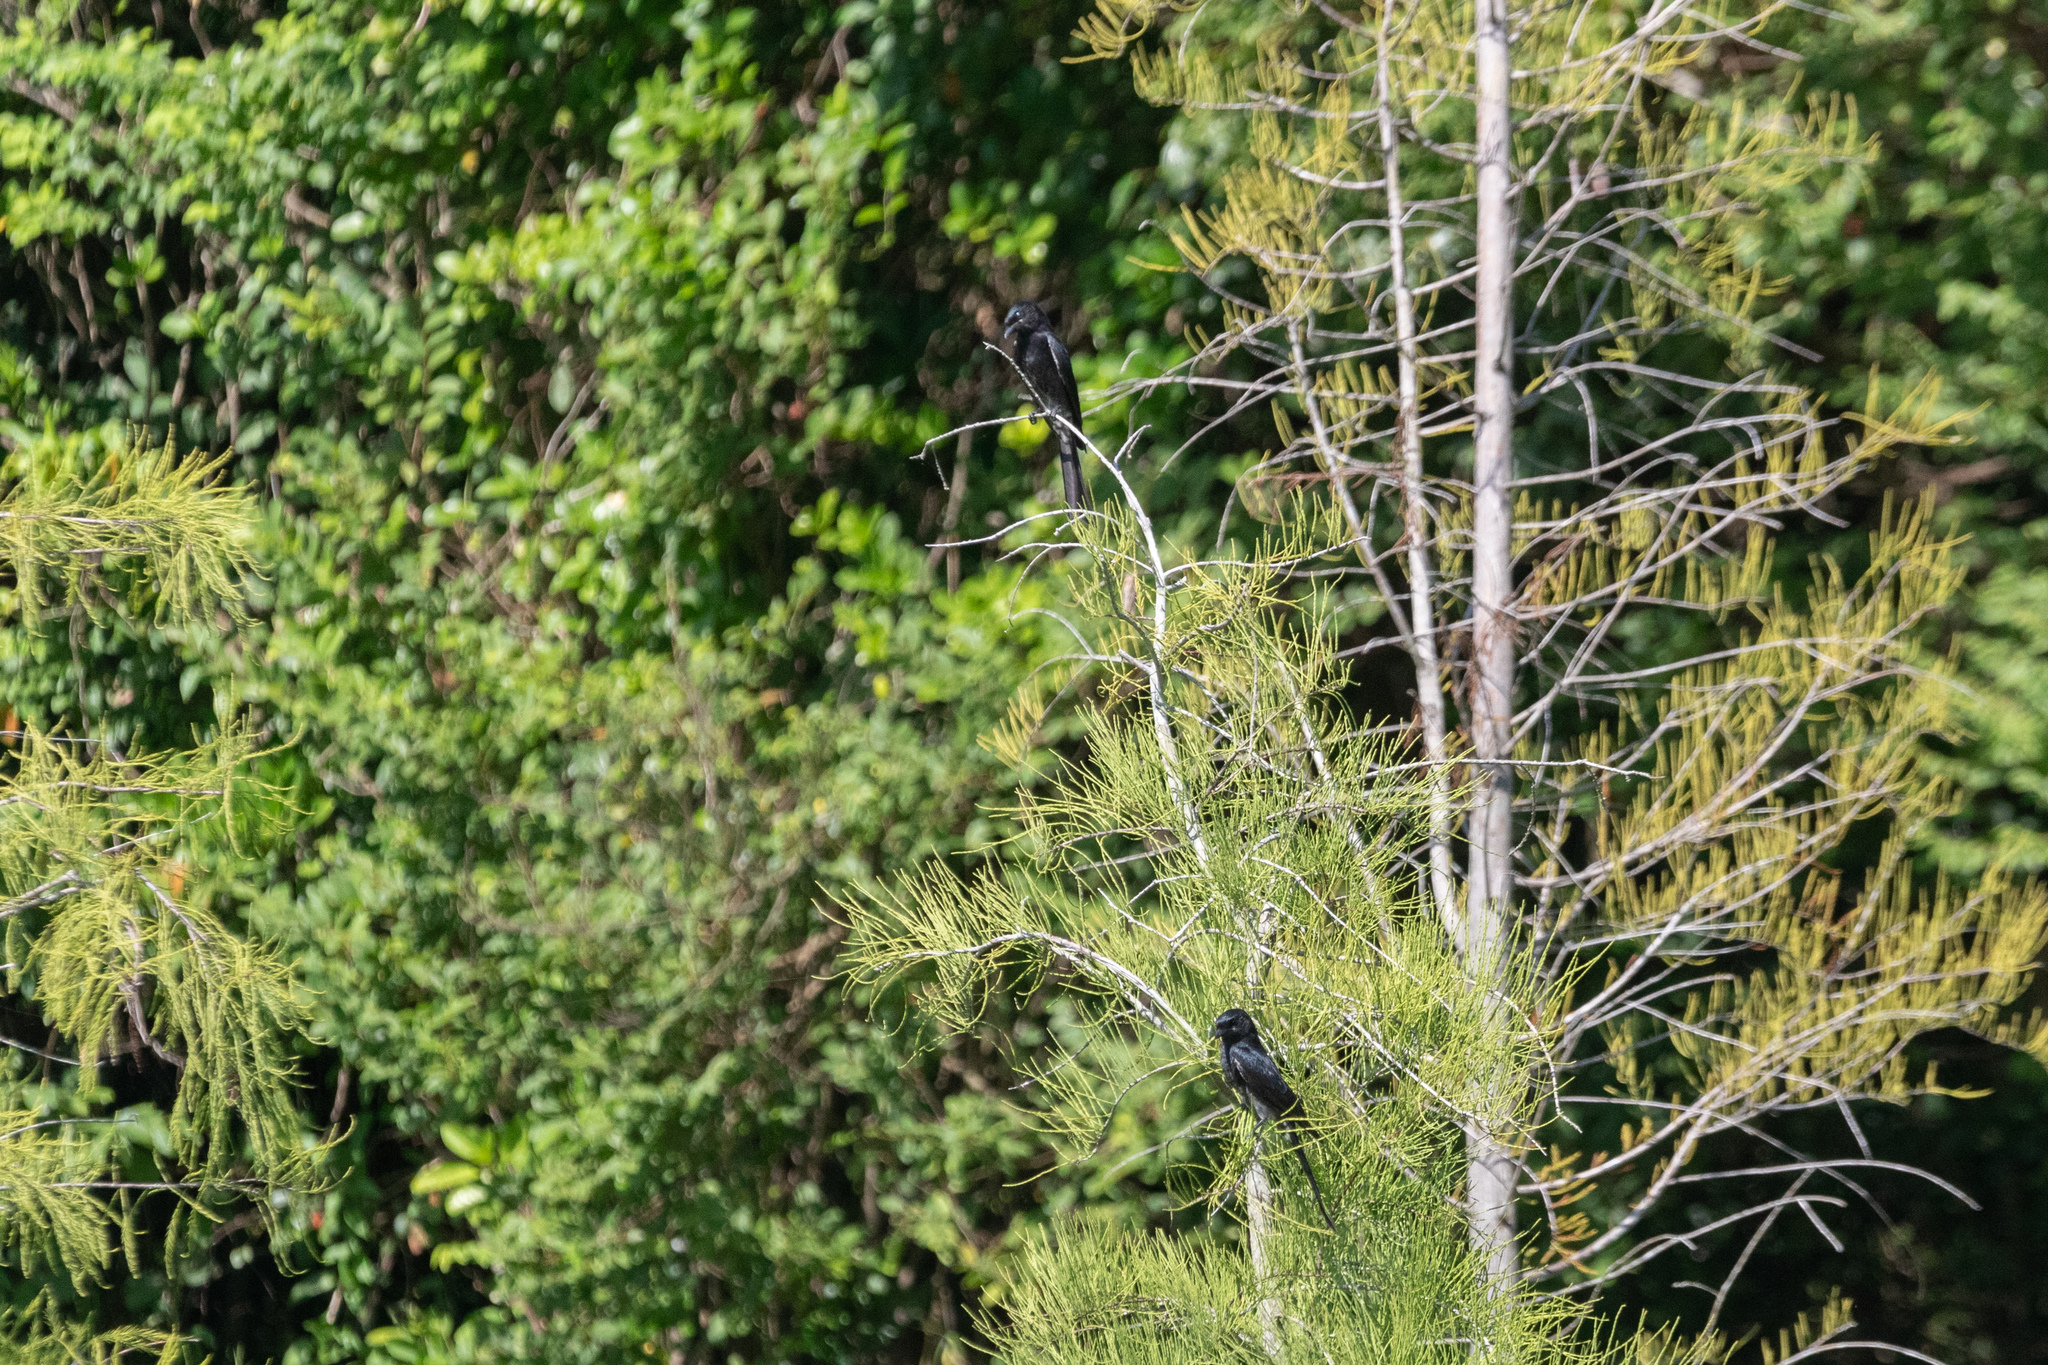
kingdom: Animalia
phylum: Chordata
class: Aves
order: Passeriformes
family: Dicruridae
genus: Dicrurus
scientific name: Dicrurus macrocercus
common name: Black drongo
